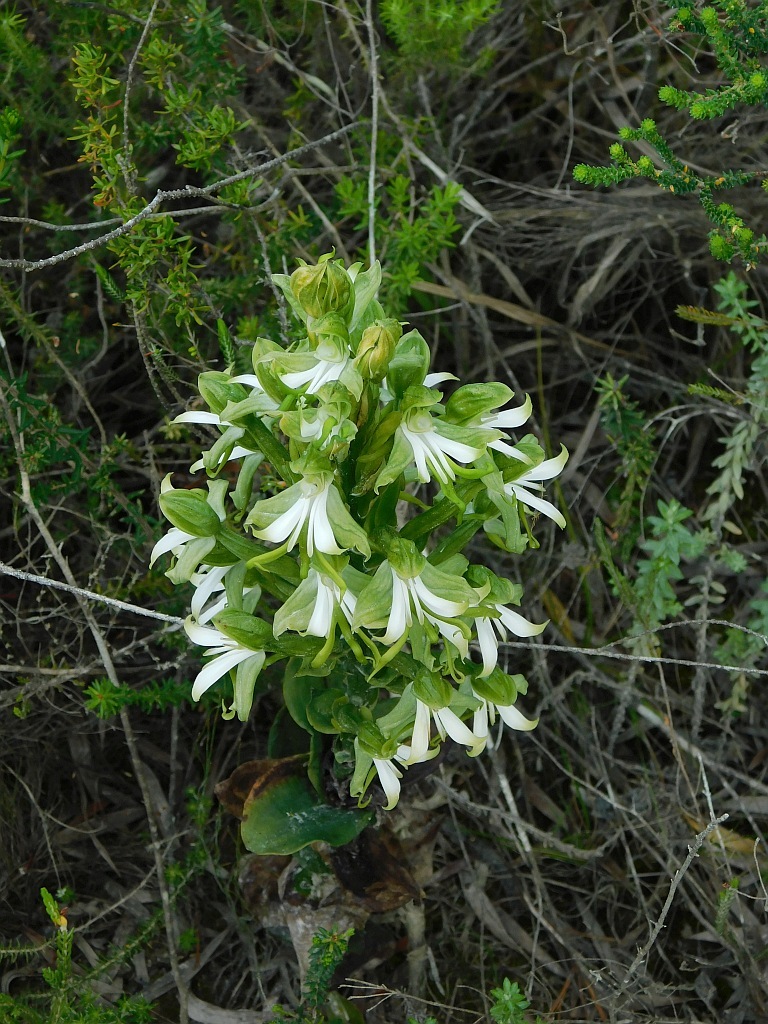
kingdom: Plantae
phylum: Tracheophyta
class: Liliopsida
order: Asparagales
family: Orchidaceae
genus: Bonatea
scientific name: Bonatea speciosa
